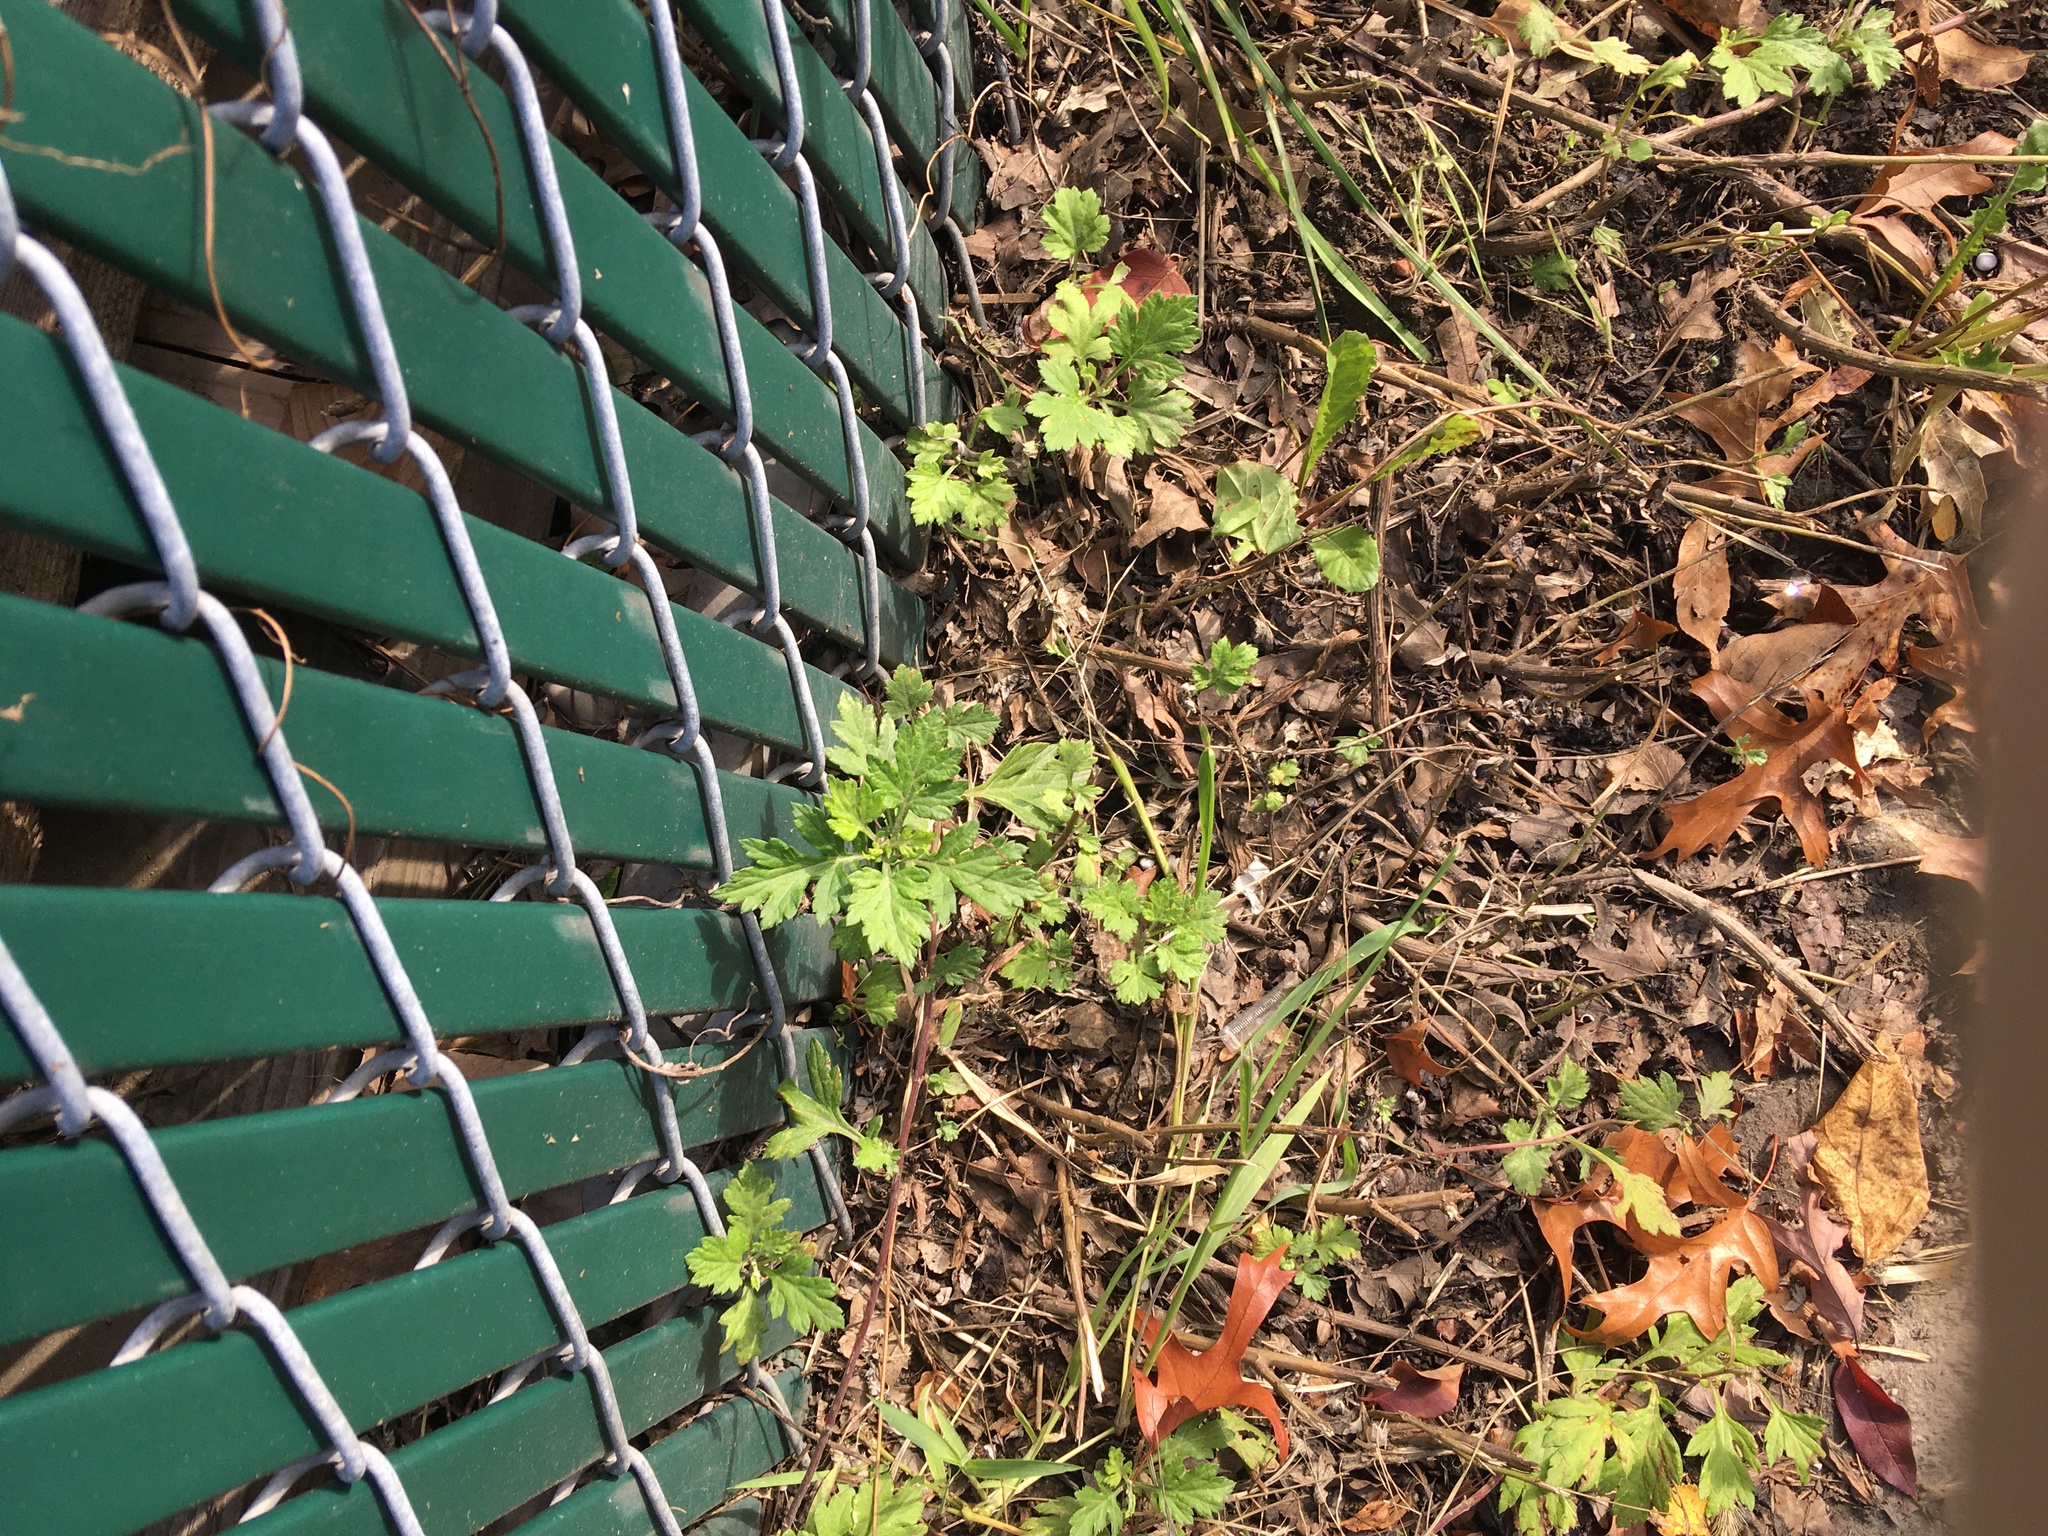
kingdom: Plantae
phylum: Tracheophyta
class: Magnoliopsida
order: Asterales
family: Asteraceae
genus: Artemisia
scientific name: Artemisia vulgaris
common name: Mugwort
